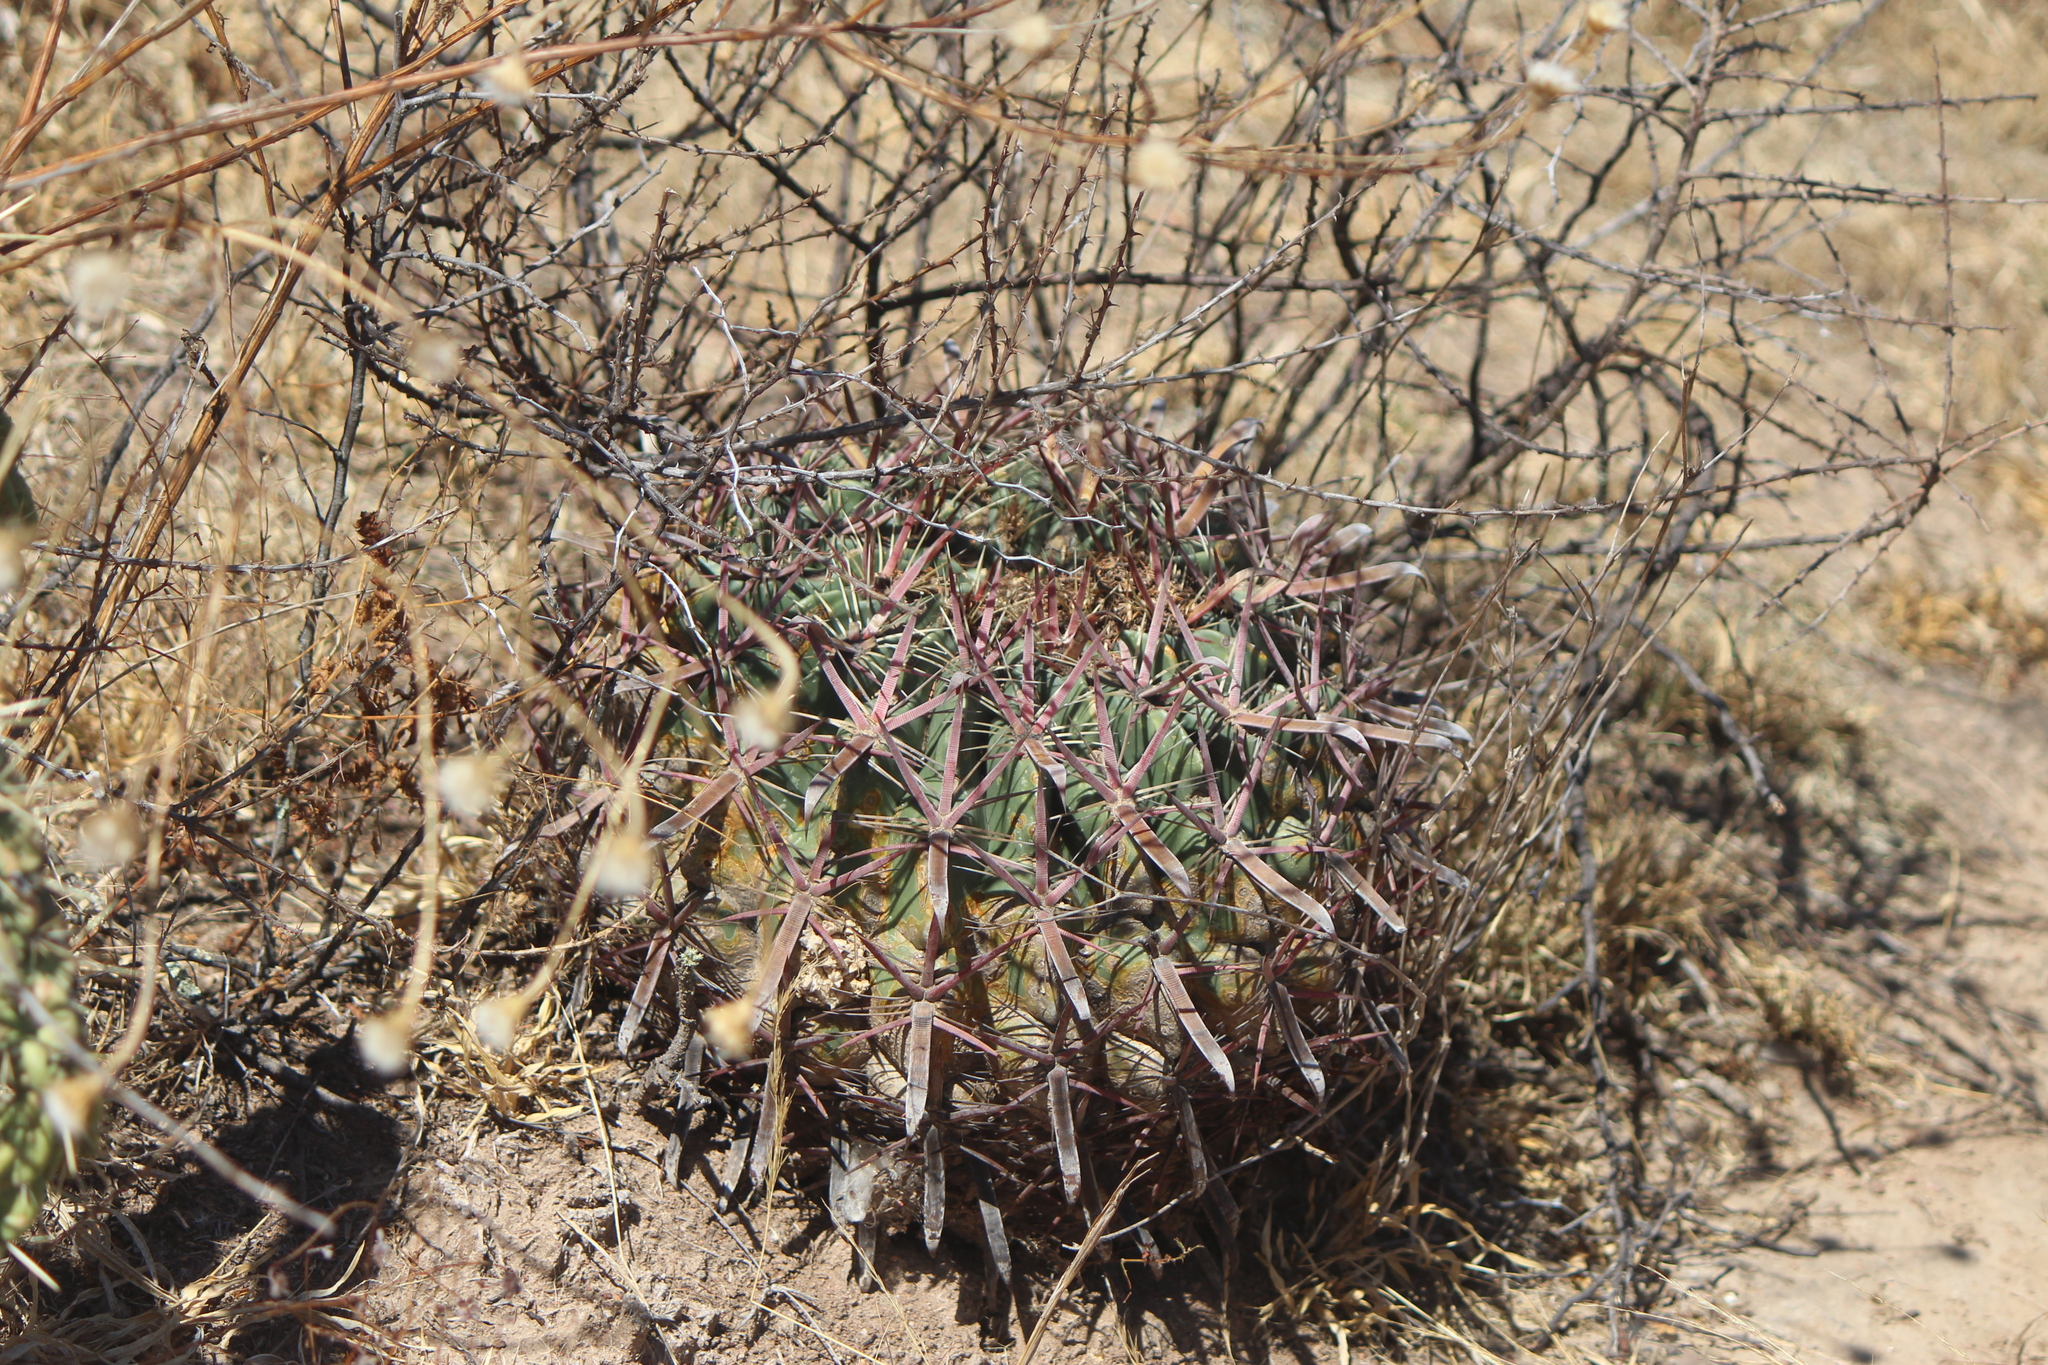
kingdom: Plantae
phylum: Tracheophyta
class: Magnoliopsida
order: Caryophyllales
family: Cactaceae
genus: Ferocactus
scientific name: Ferocactus latispinus
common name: Devil's-tongue cactus
